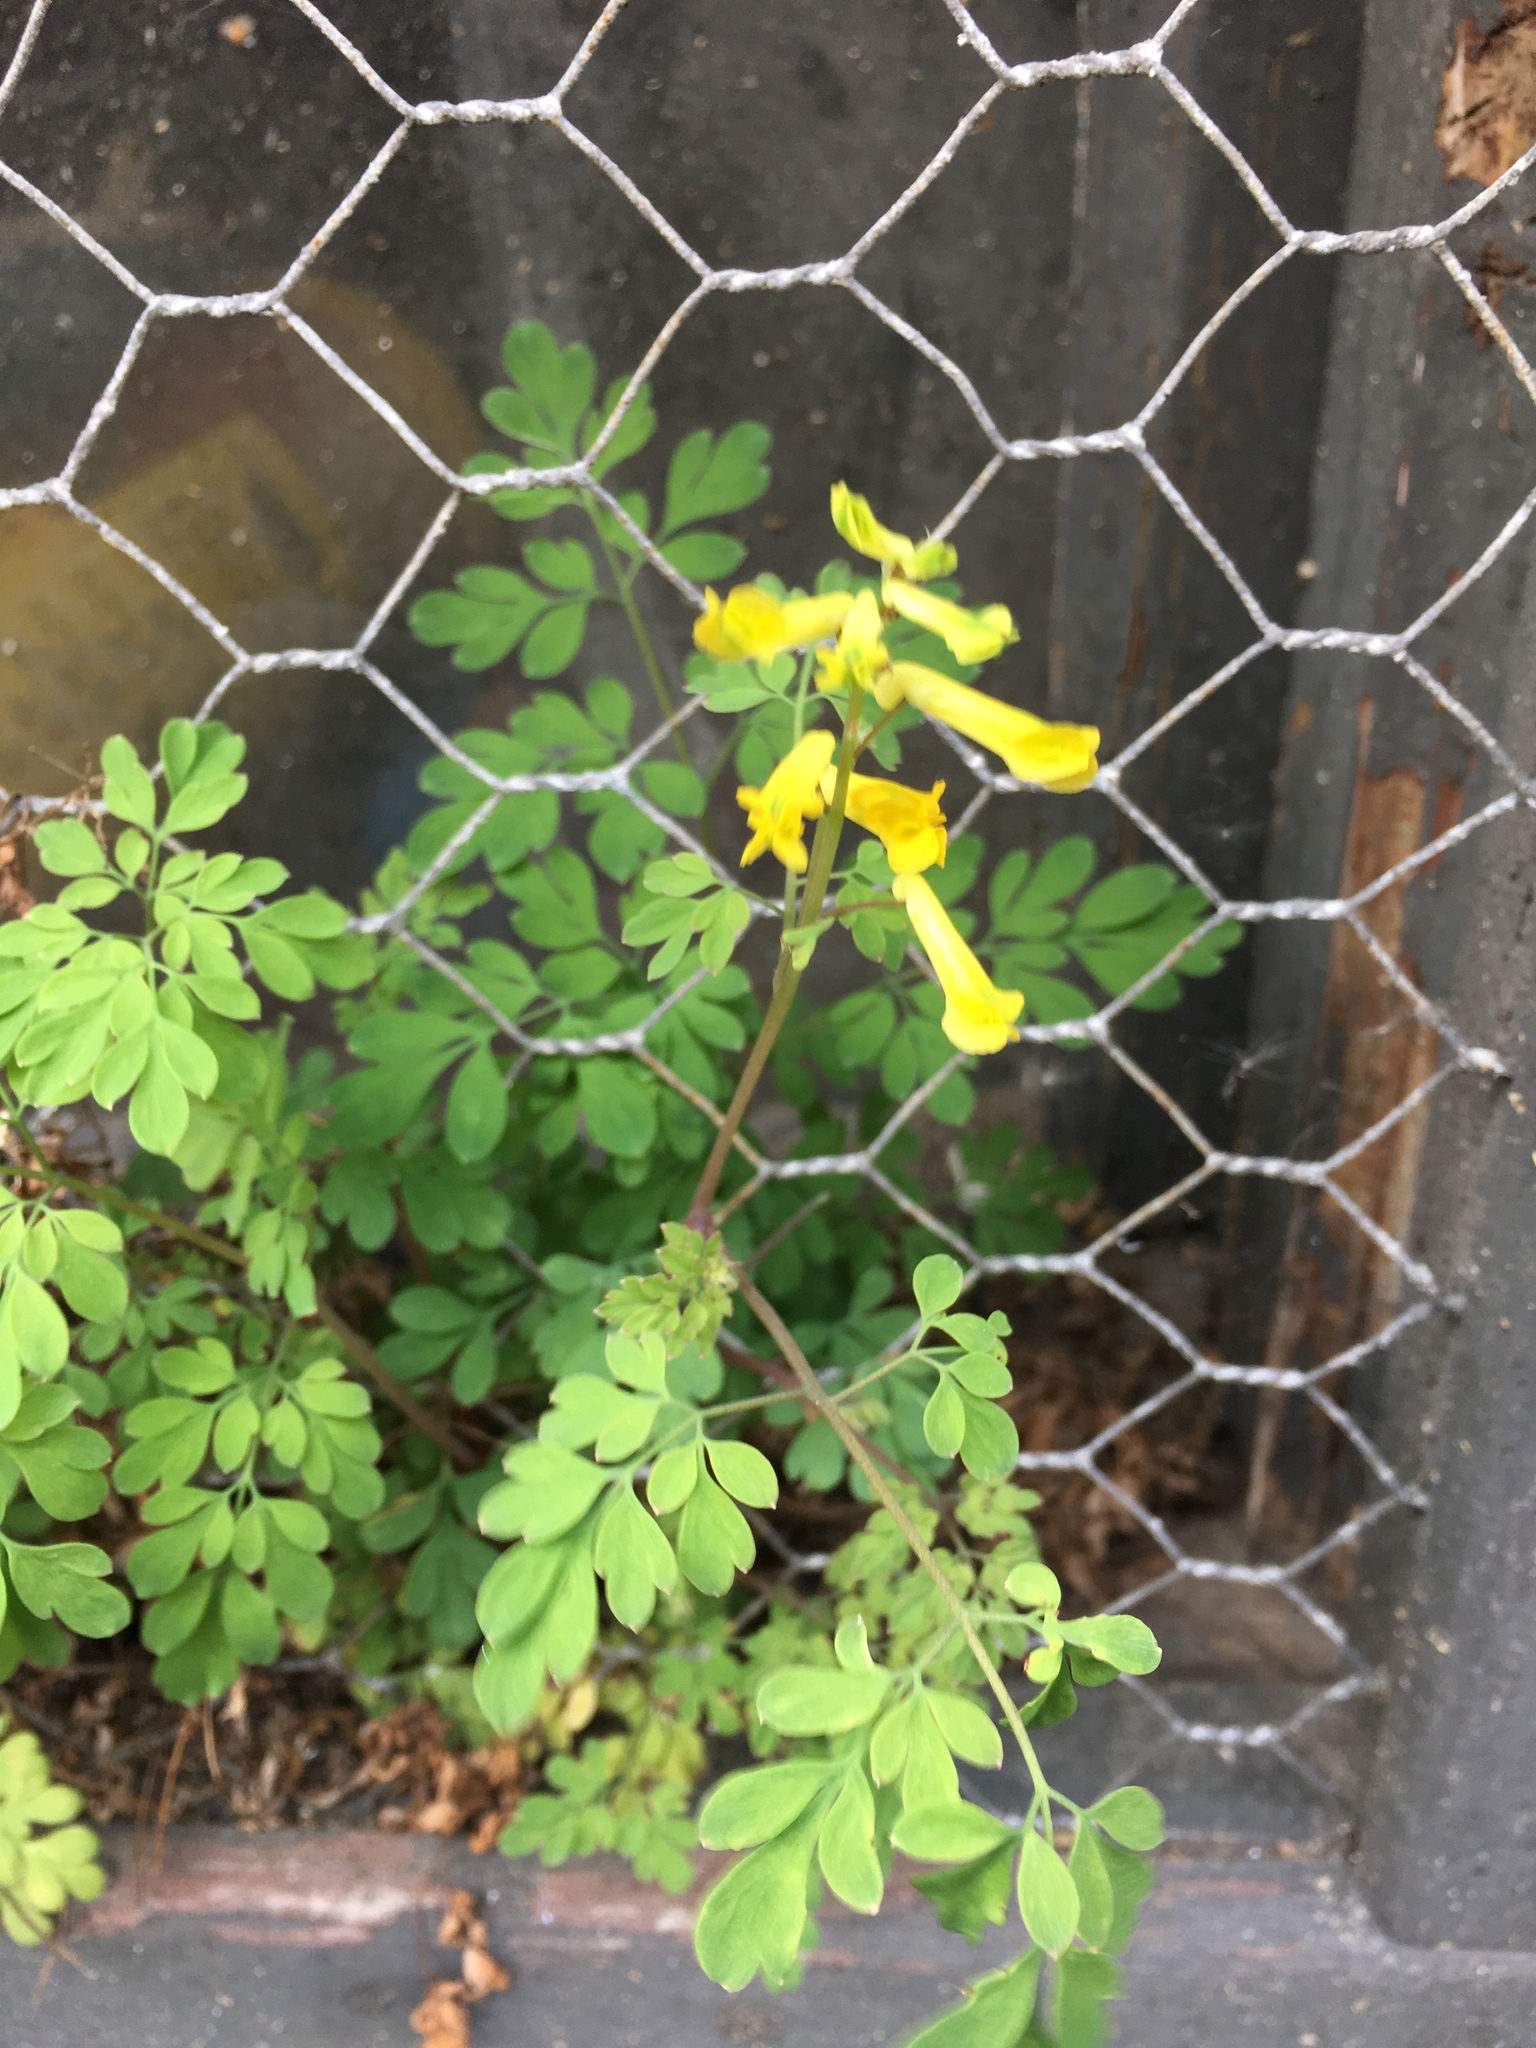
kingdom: Plantae
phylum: Tracheophyta
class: Magnoliopsida
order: Ranunculales
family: Papaveraceae
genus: Pseudofumaria
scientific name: Pseudofumaria lutea
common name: Yellow corydalis
